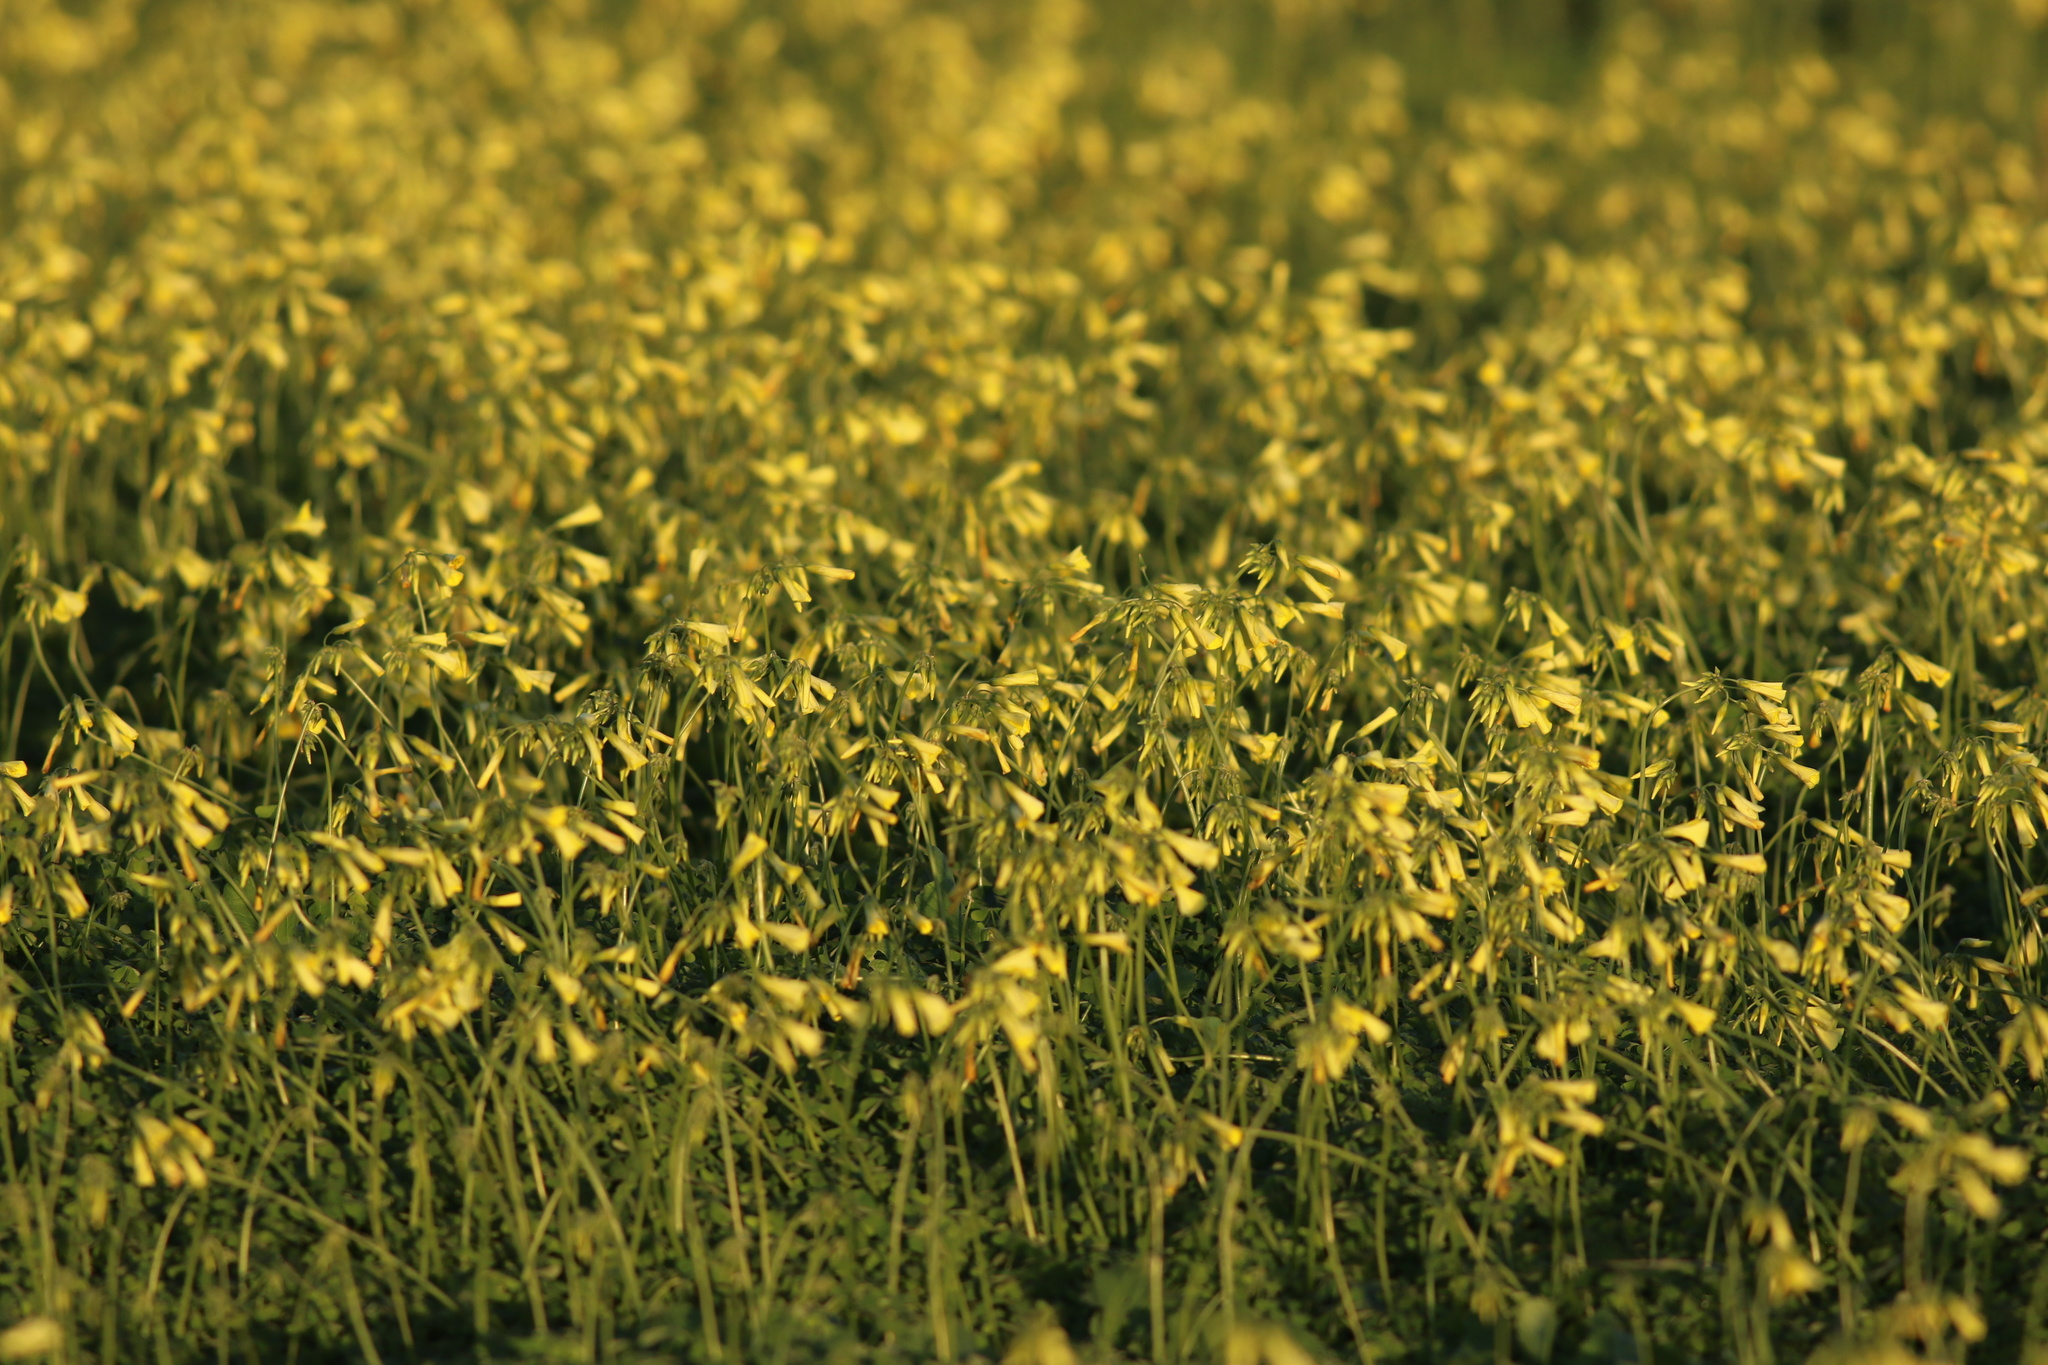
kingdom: Plantae
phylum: Tracheophyta
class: Magnoliopsida
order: Oxalidales
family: Oxalidaceae
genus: Oxalis
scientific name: Oxalis pes-caprae
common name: Bermuda-buttercup
